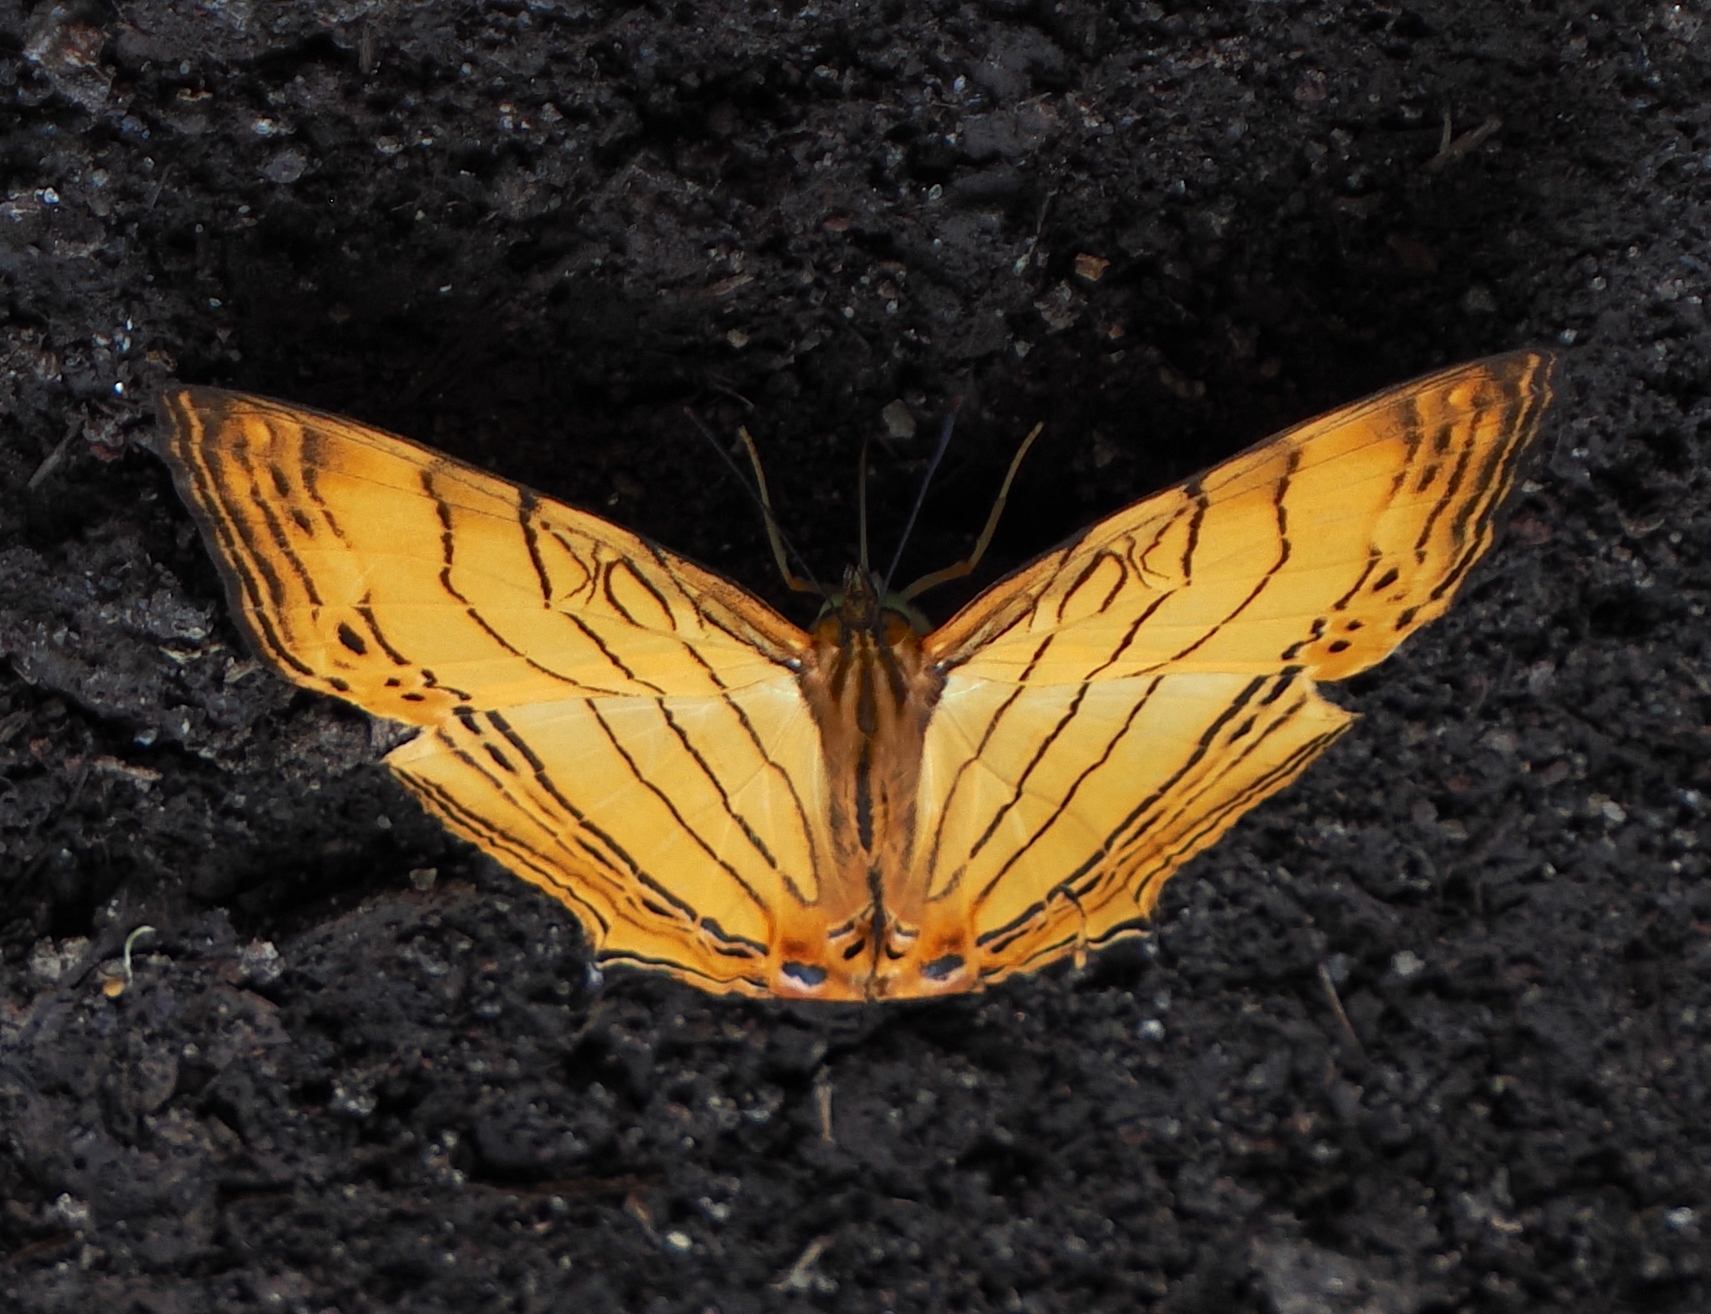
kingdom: Animalia
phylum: Arthropoda
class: Insecta
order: Lepidoptera
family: Nymphalidae
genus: Cyrestis
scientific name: Cyrestis lutea
